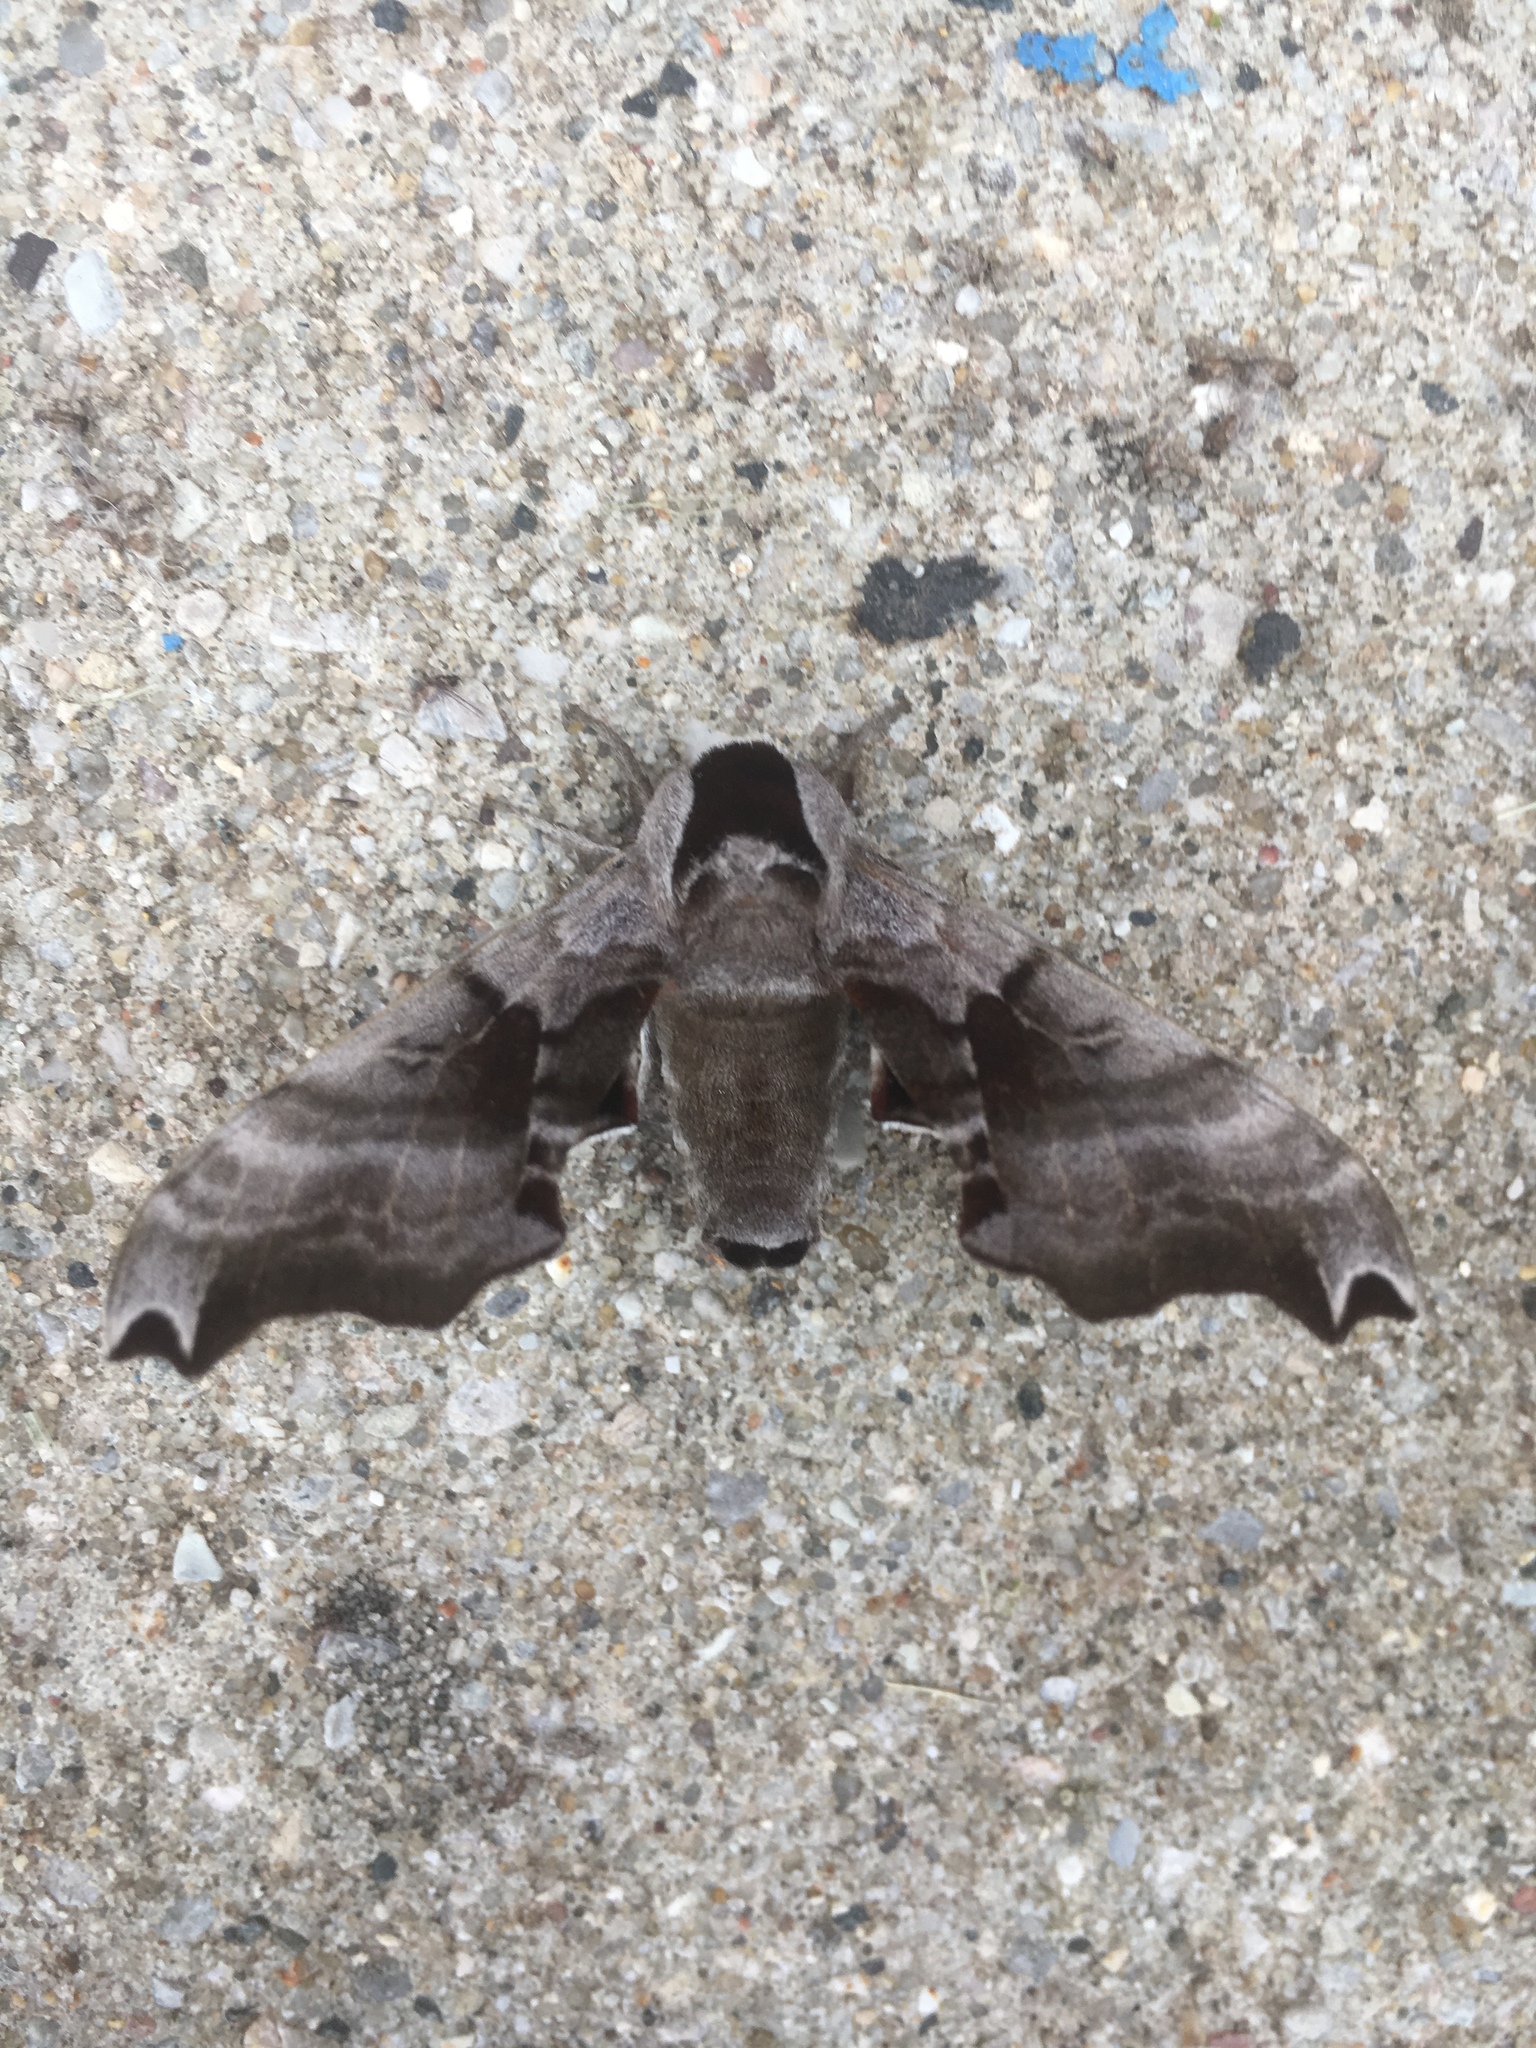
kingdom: Animalia
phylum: Arthropoda
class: Insecta
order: Lepidoptera
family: Sphingidae
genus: Smerinthus
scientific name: Smerinthus jamaicensis
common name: Twin spotted sphinx
